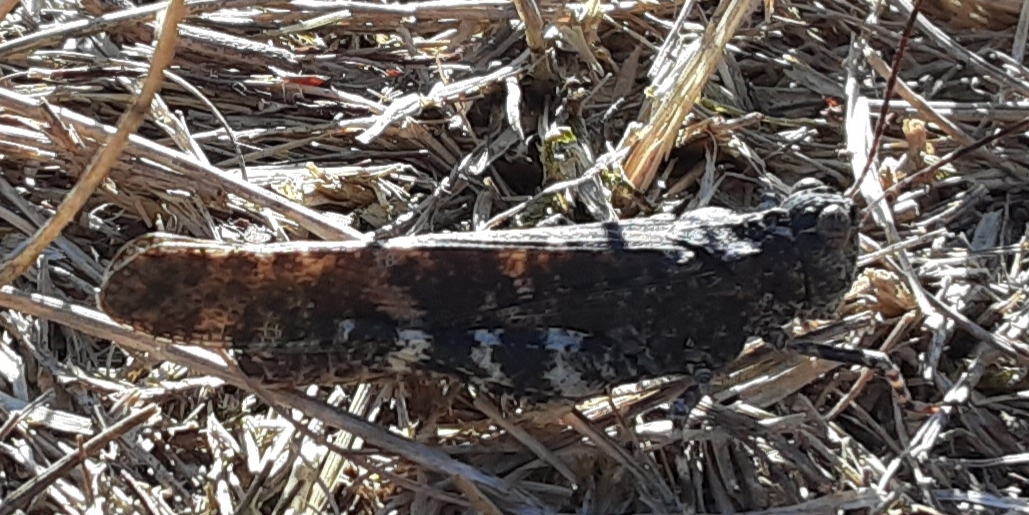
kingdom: Animalia
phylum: Arthropoda
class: Insecta
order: Orthoptera
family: Acrididae
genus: Trimerotropis
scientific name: Trimerotropis verruculata
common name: Crackling forest grasshopper
